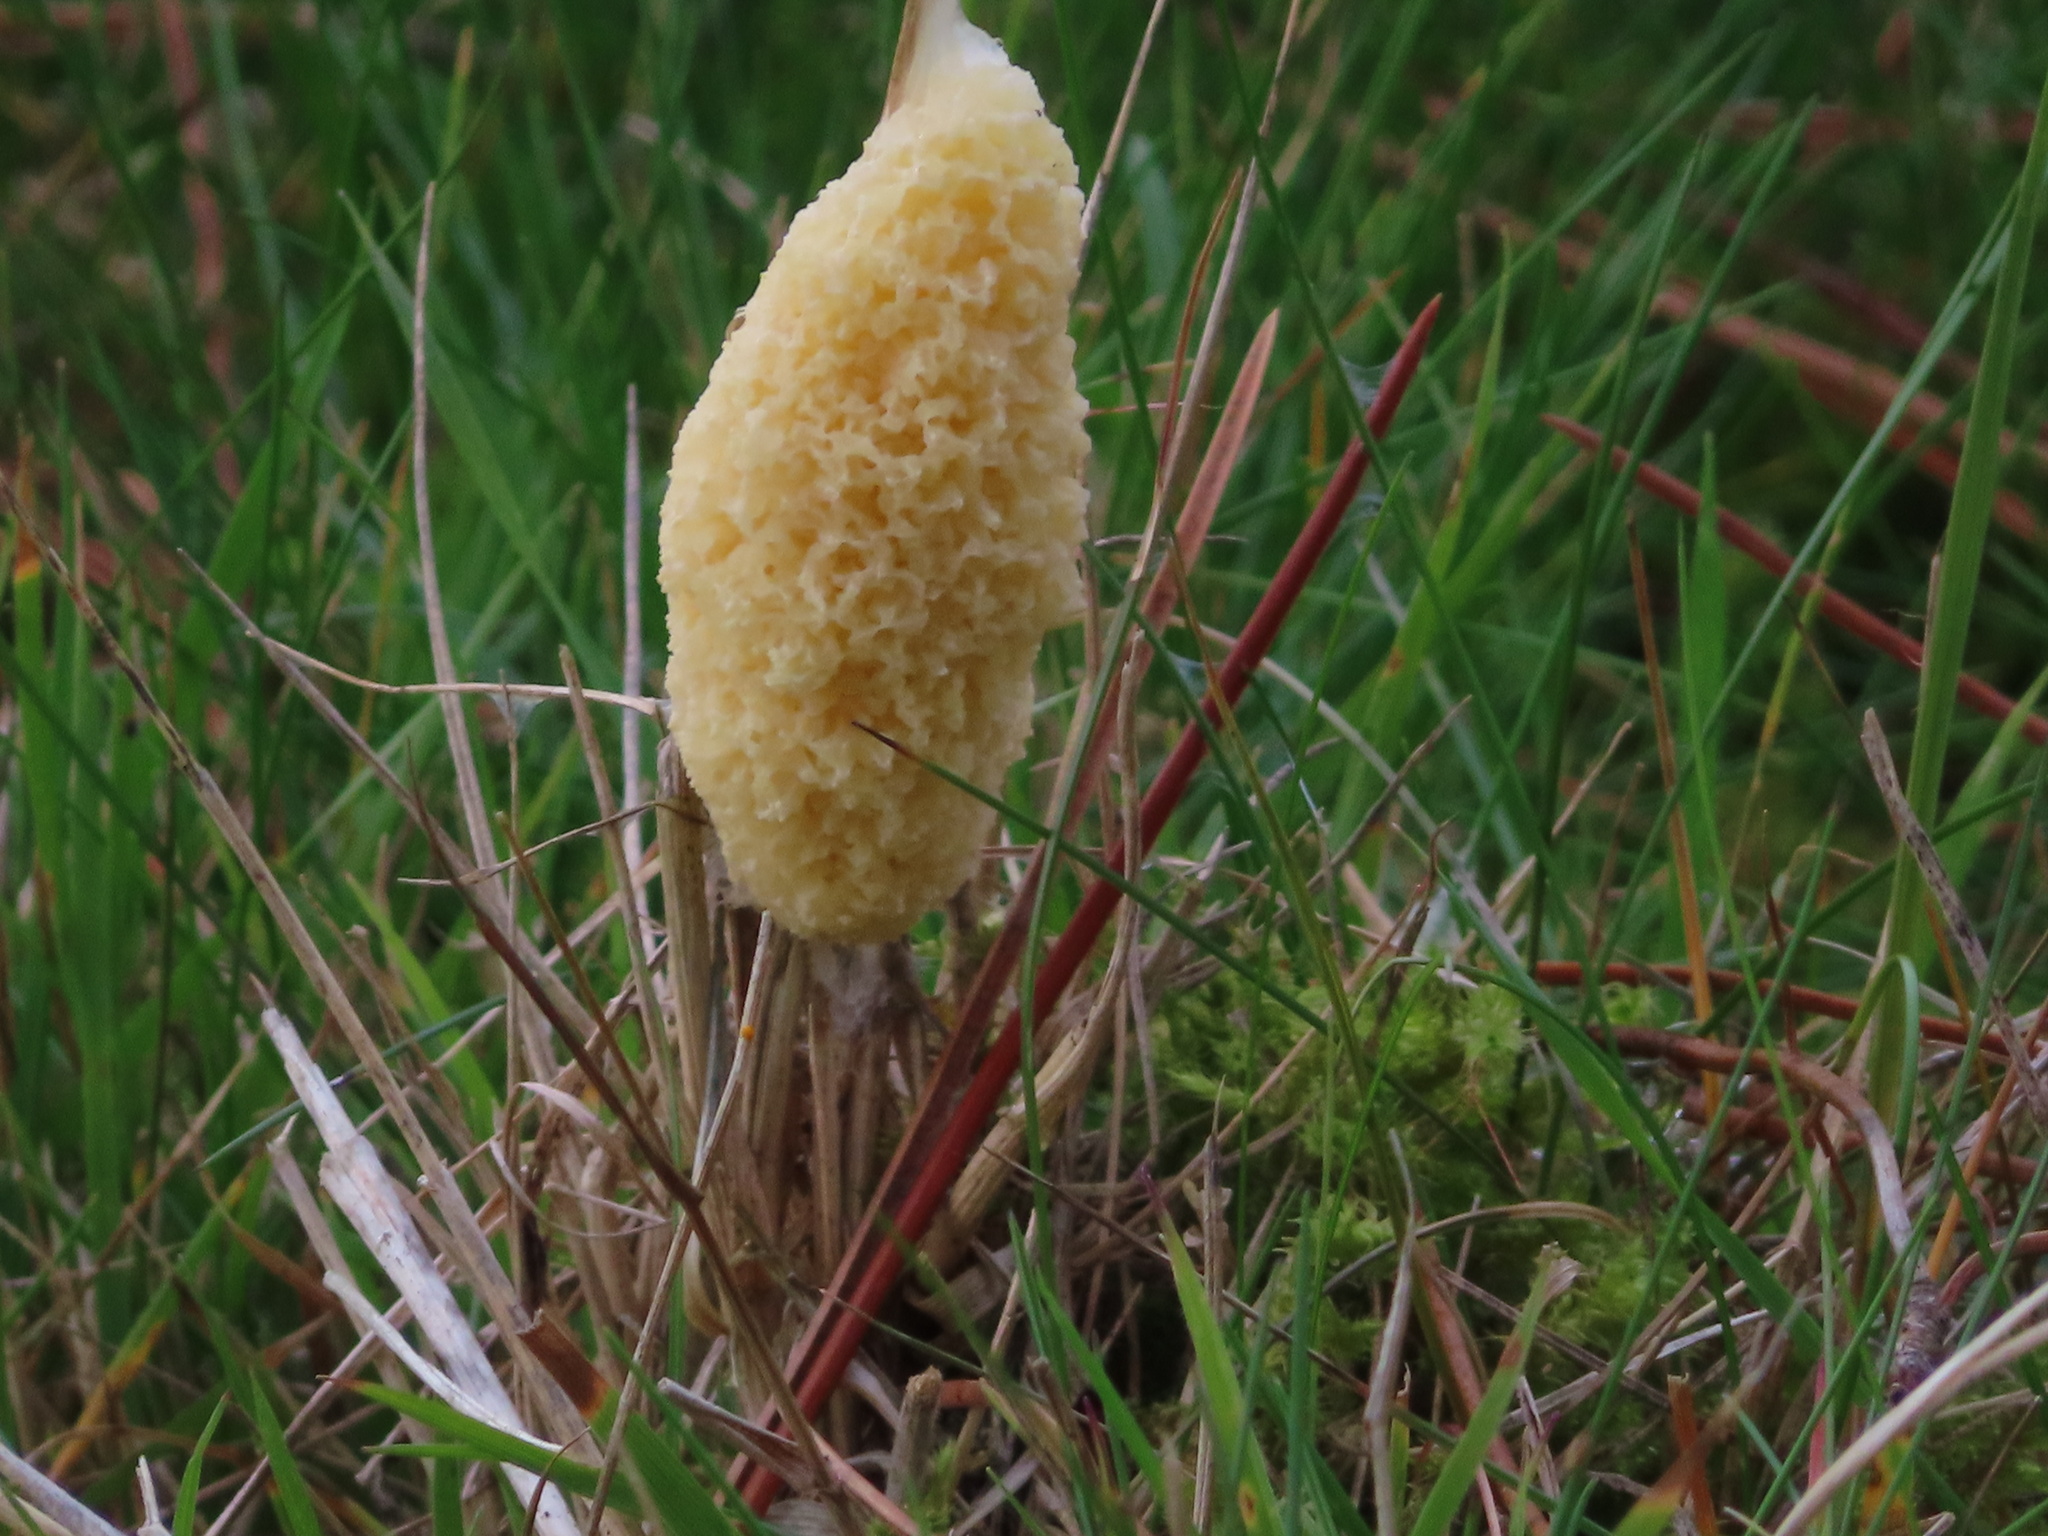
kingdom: Protozoa
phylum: Mycetozoa
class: Myxomycetes
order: Physarales
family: Physaraceae
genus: Didymium
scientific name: Didymium
